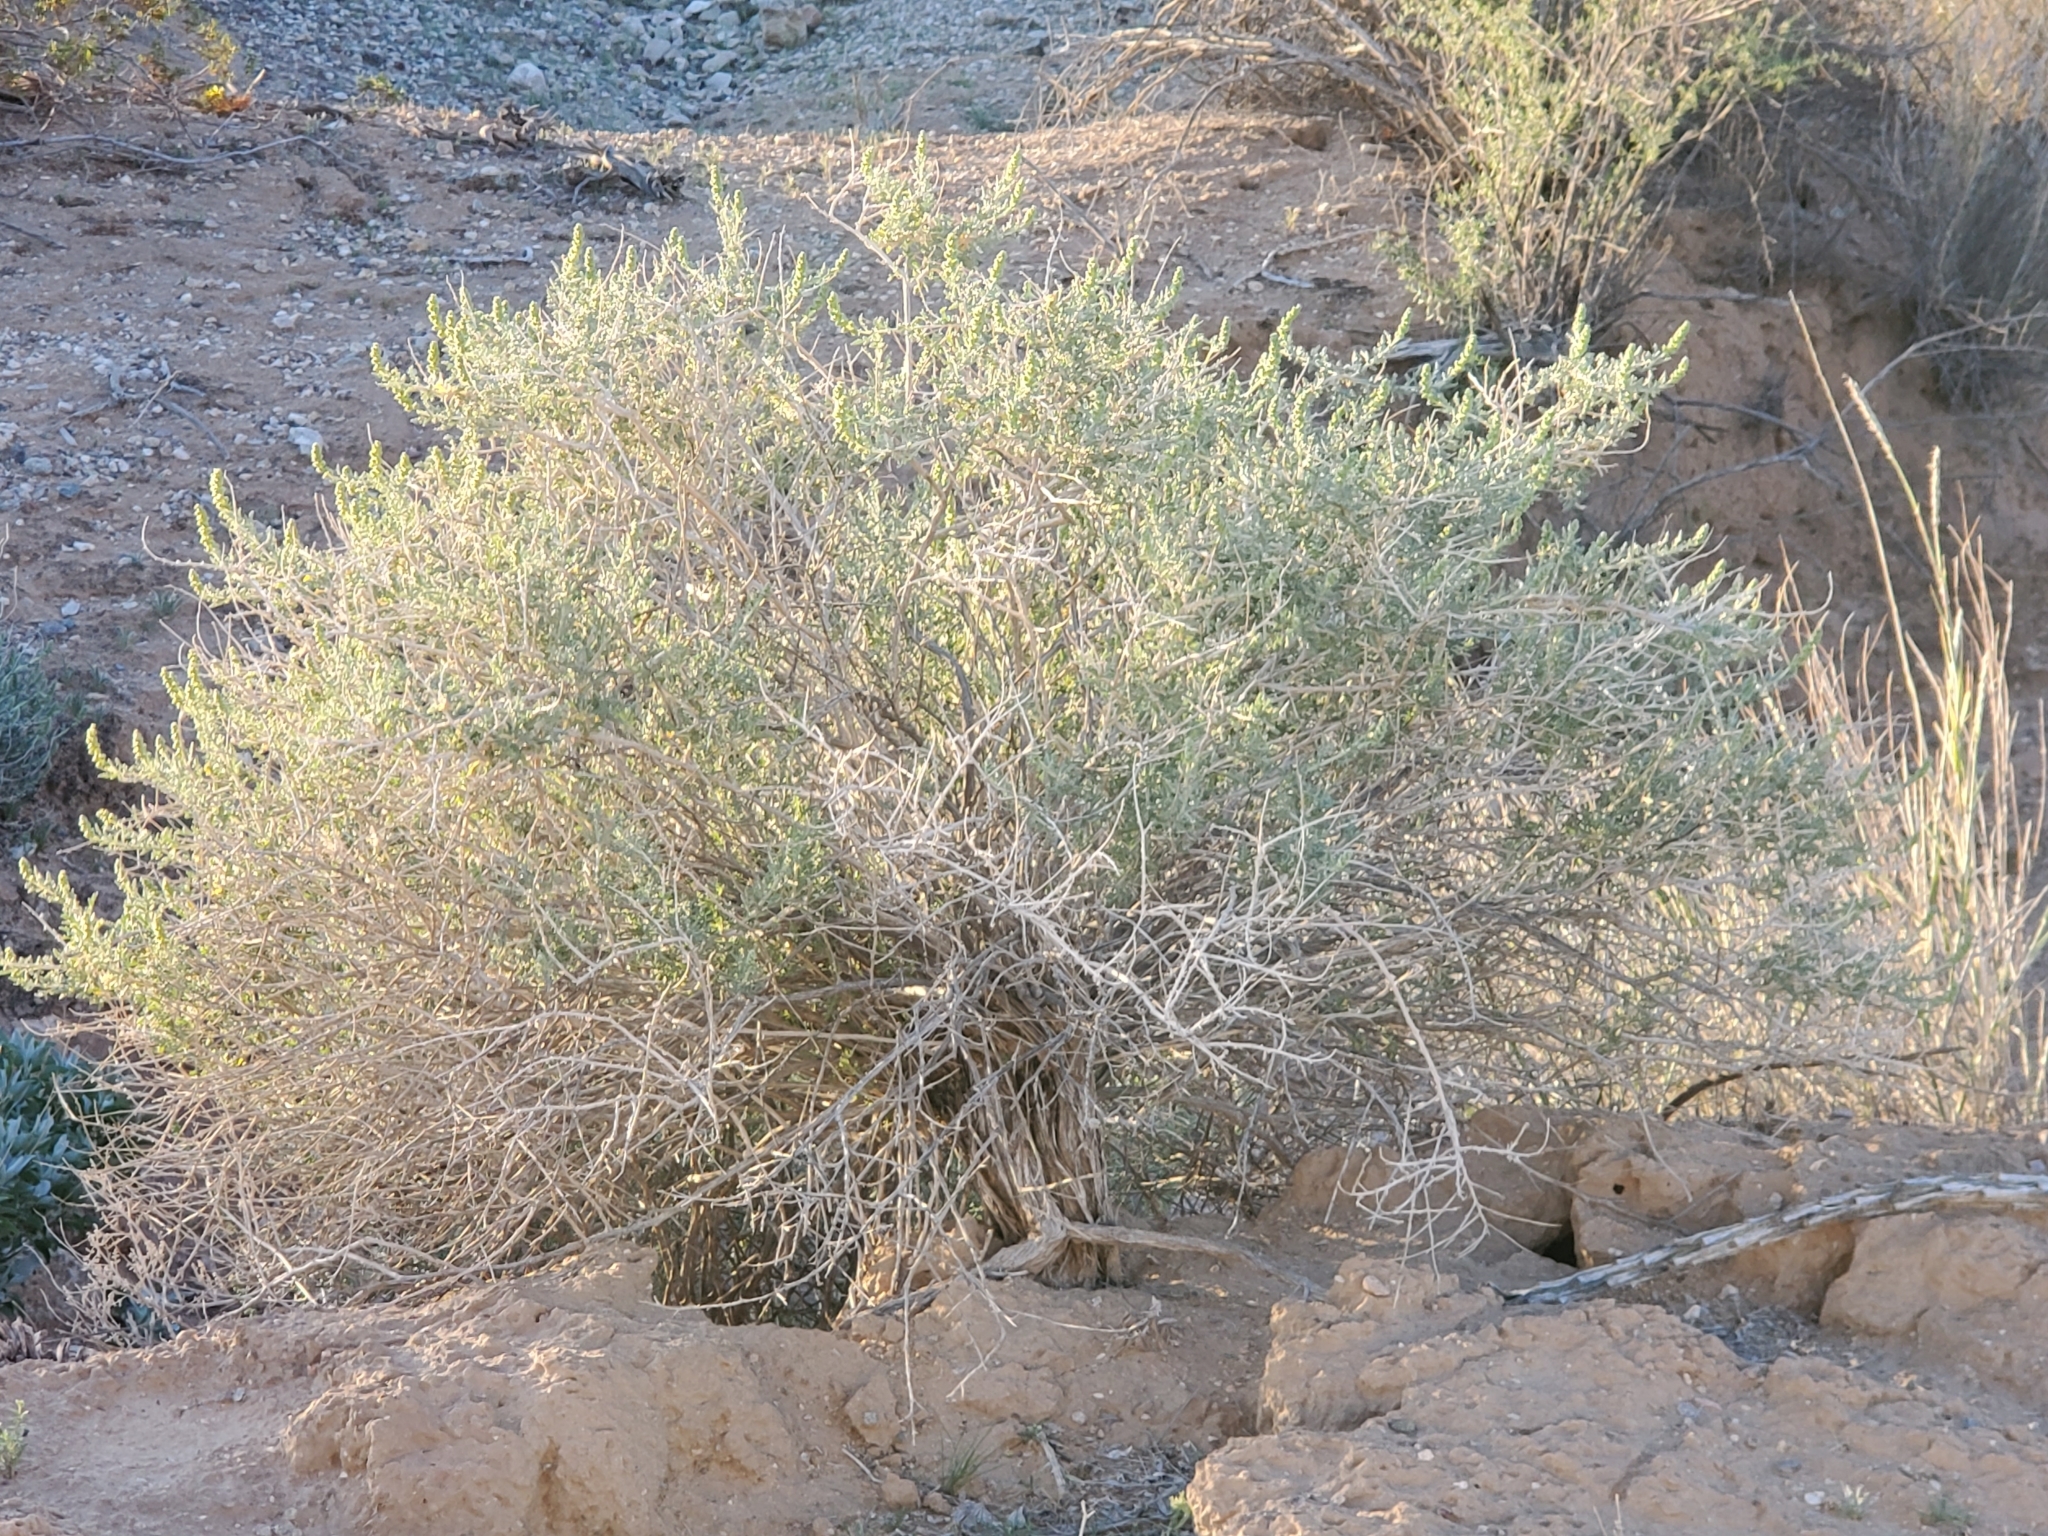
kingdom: Plantae
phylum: Tracheophyta
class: Magnoliopsida
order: Asterales
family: Asteraceae
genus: Ambrosia
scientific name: Ambrosia dumosa
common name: Bur-sage
